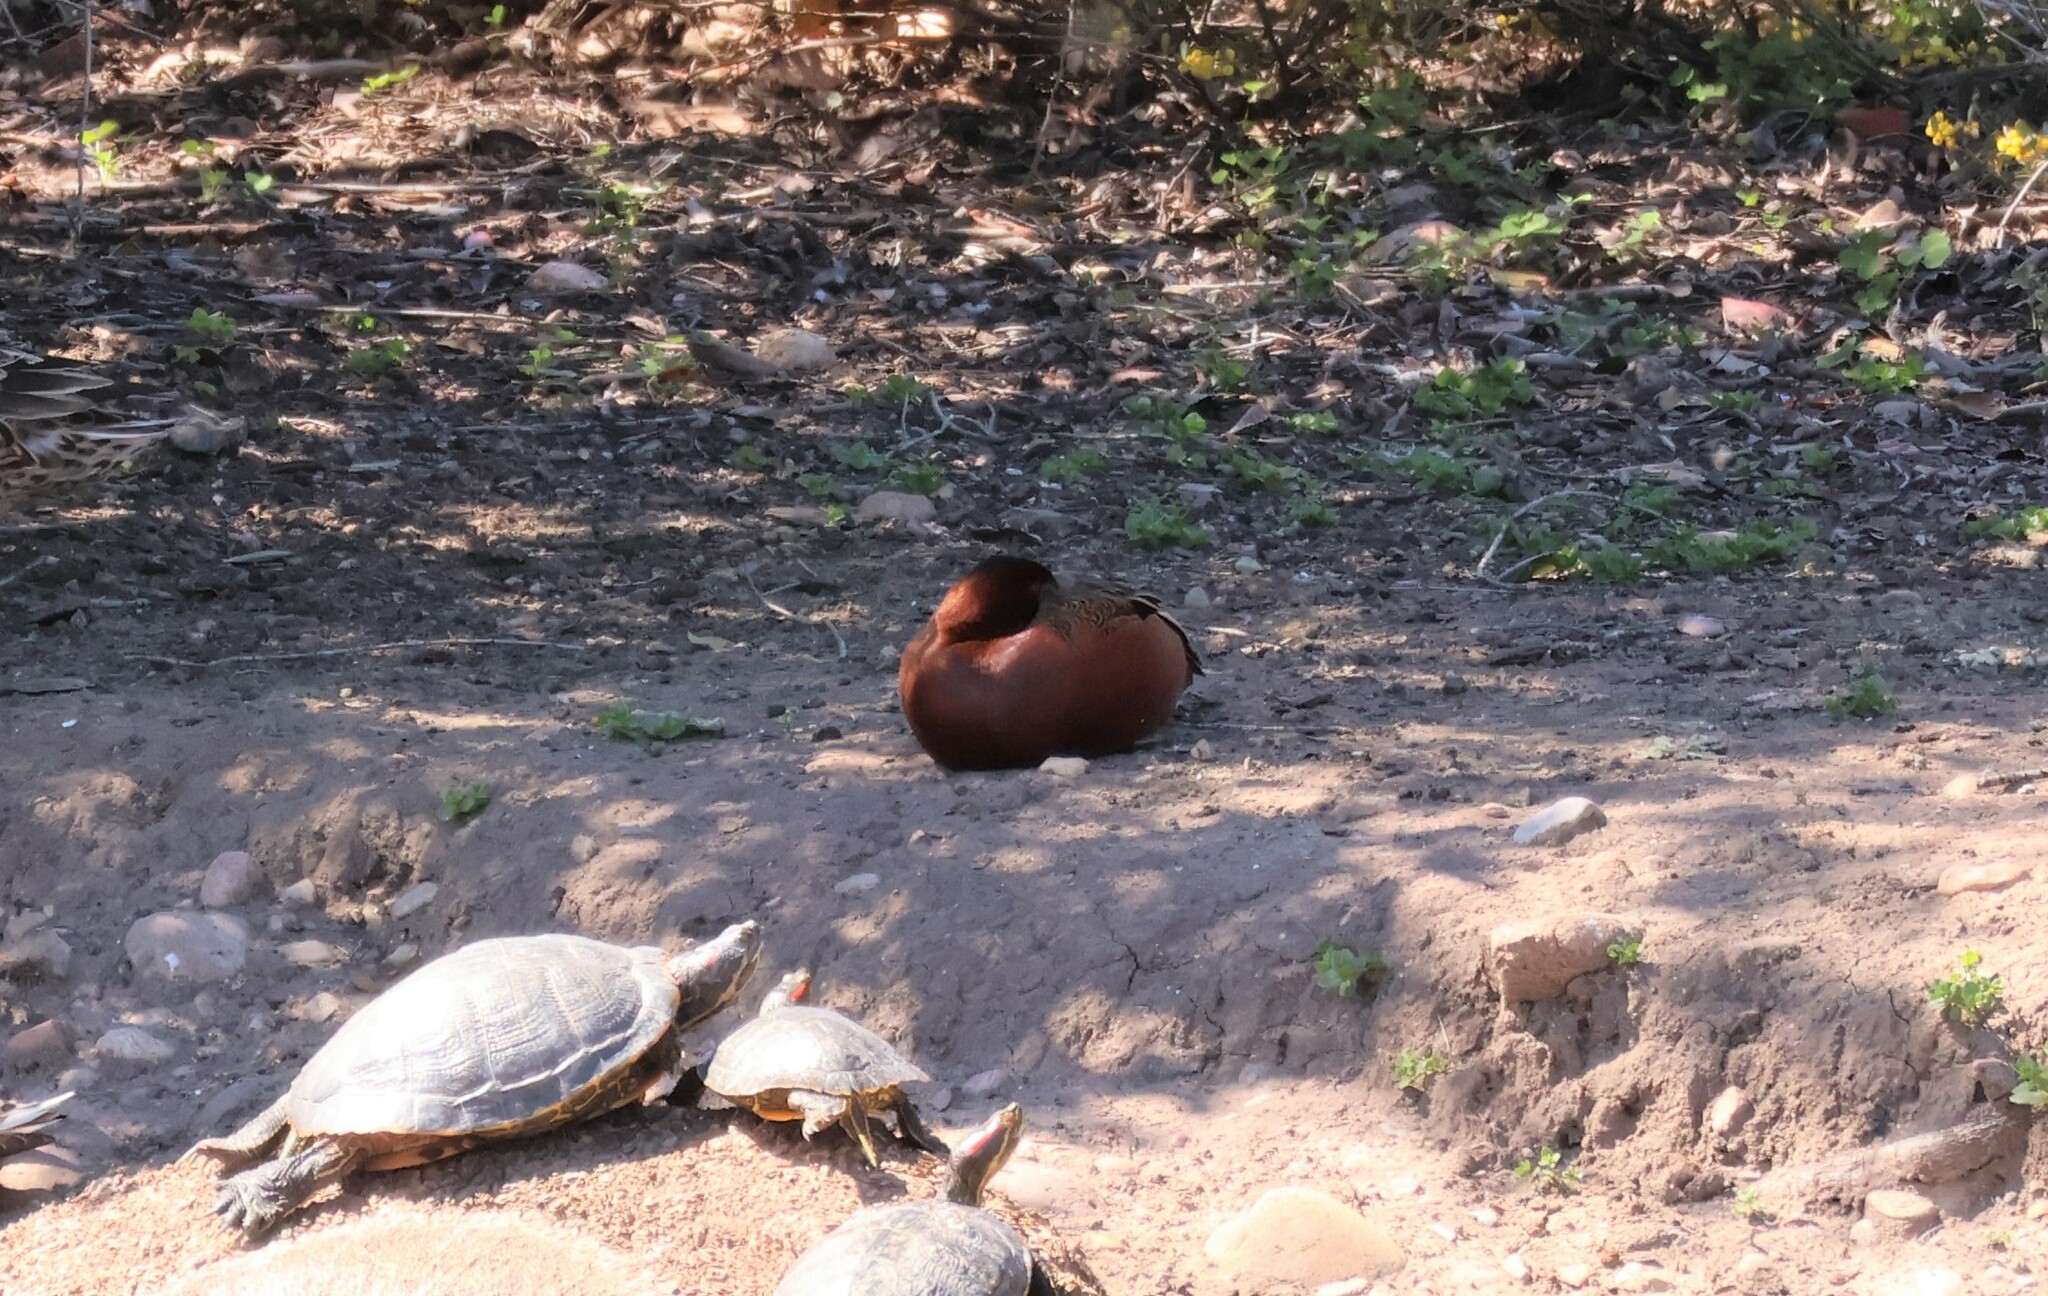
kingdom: Animalia
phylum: Chordata
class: Aves
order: Anseriformes
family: Anatidae
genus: Spatula
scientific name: Spatula cyanoptera
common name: Cinnamon teal
